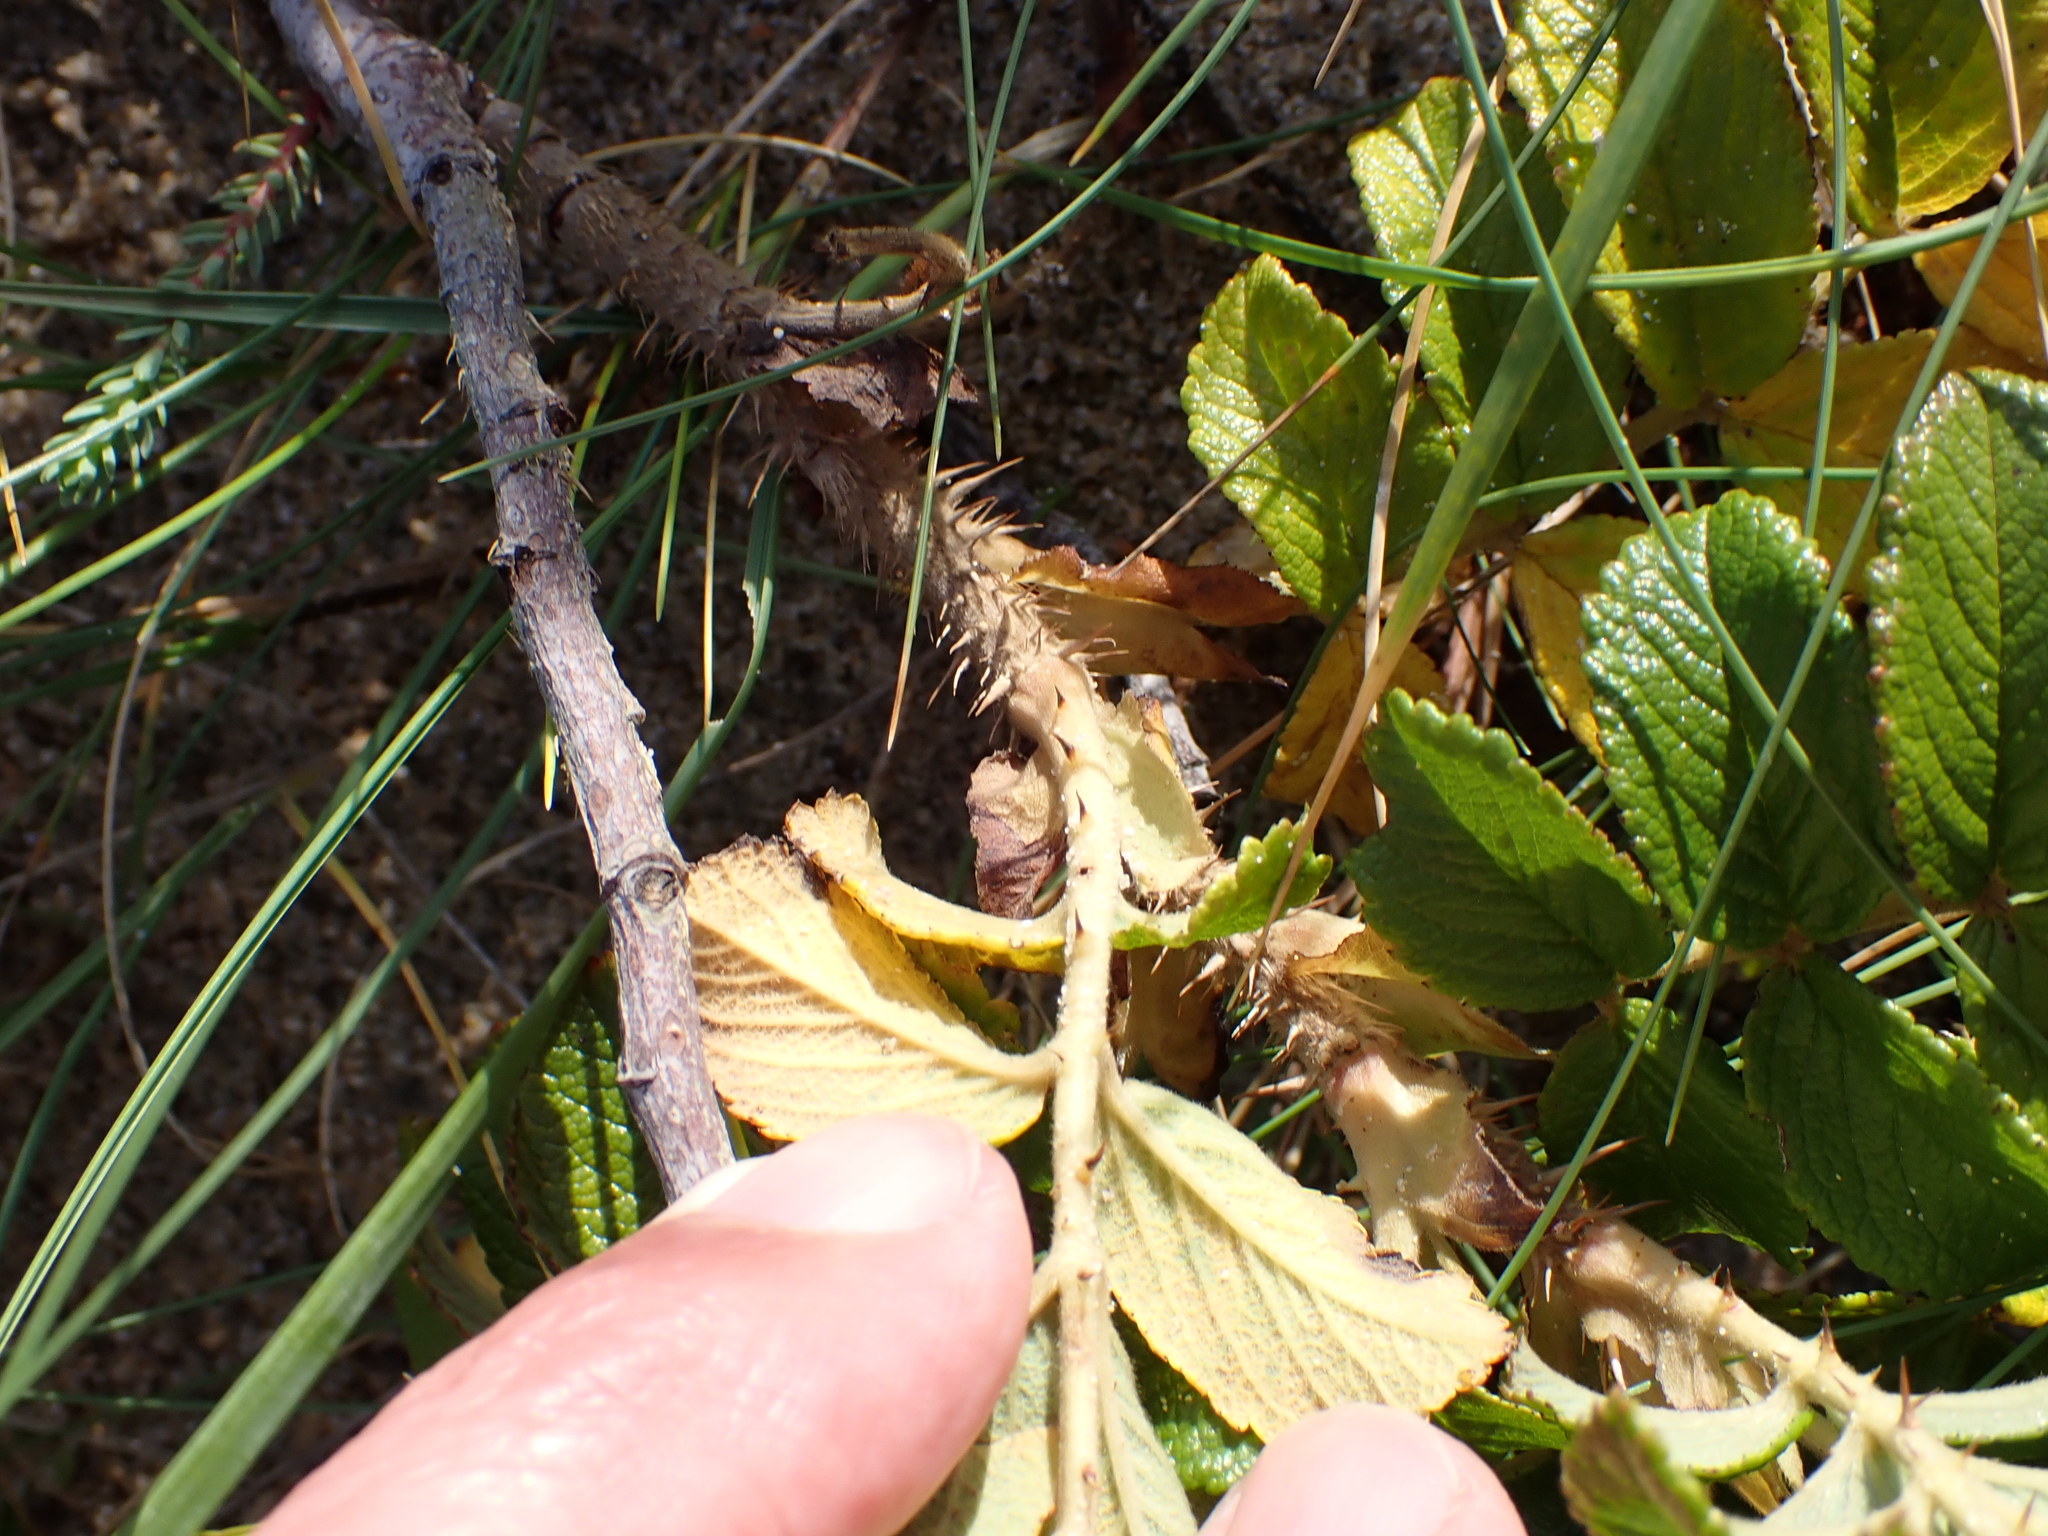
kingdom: Plantae
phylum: Tracheophyta
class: Magnoliopsida
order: Rosales
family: Rosaceae
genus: Rosa
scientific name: Rosa rugosa
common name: Japanese rose
